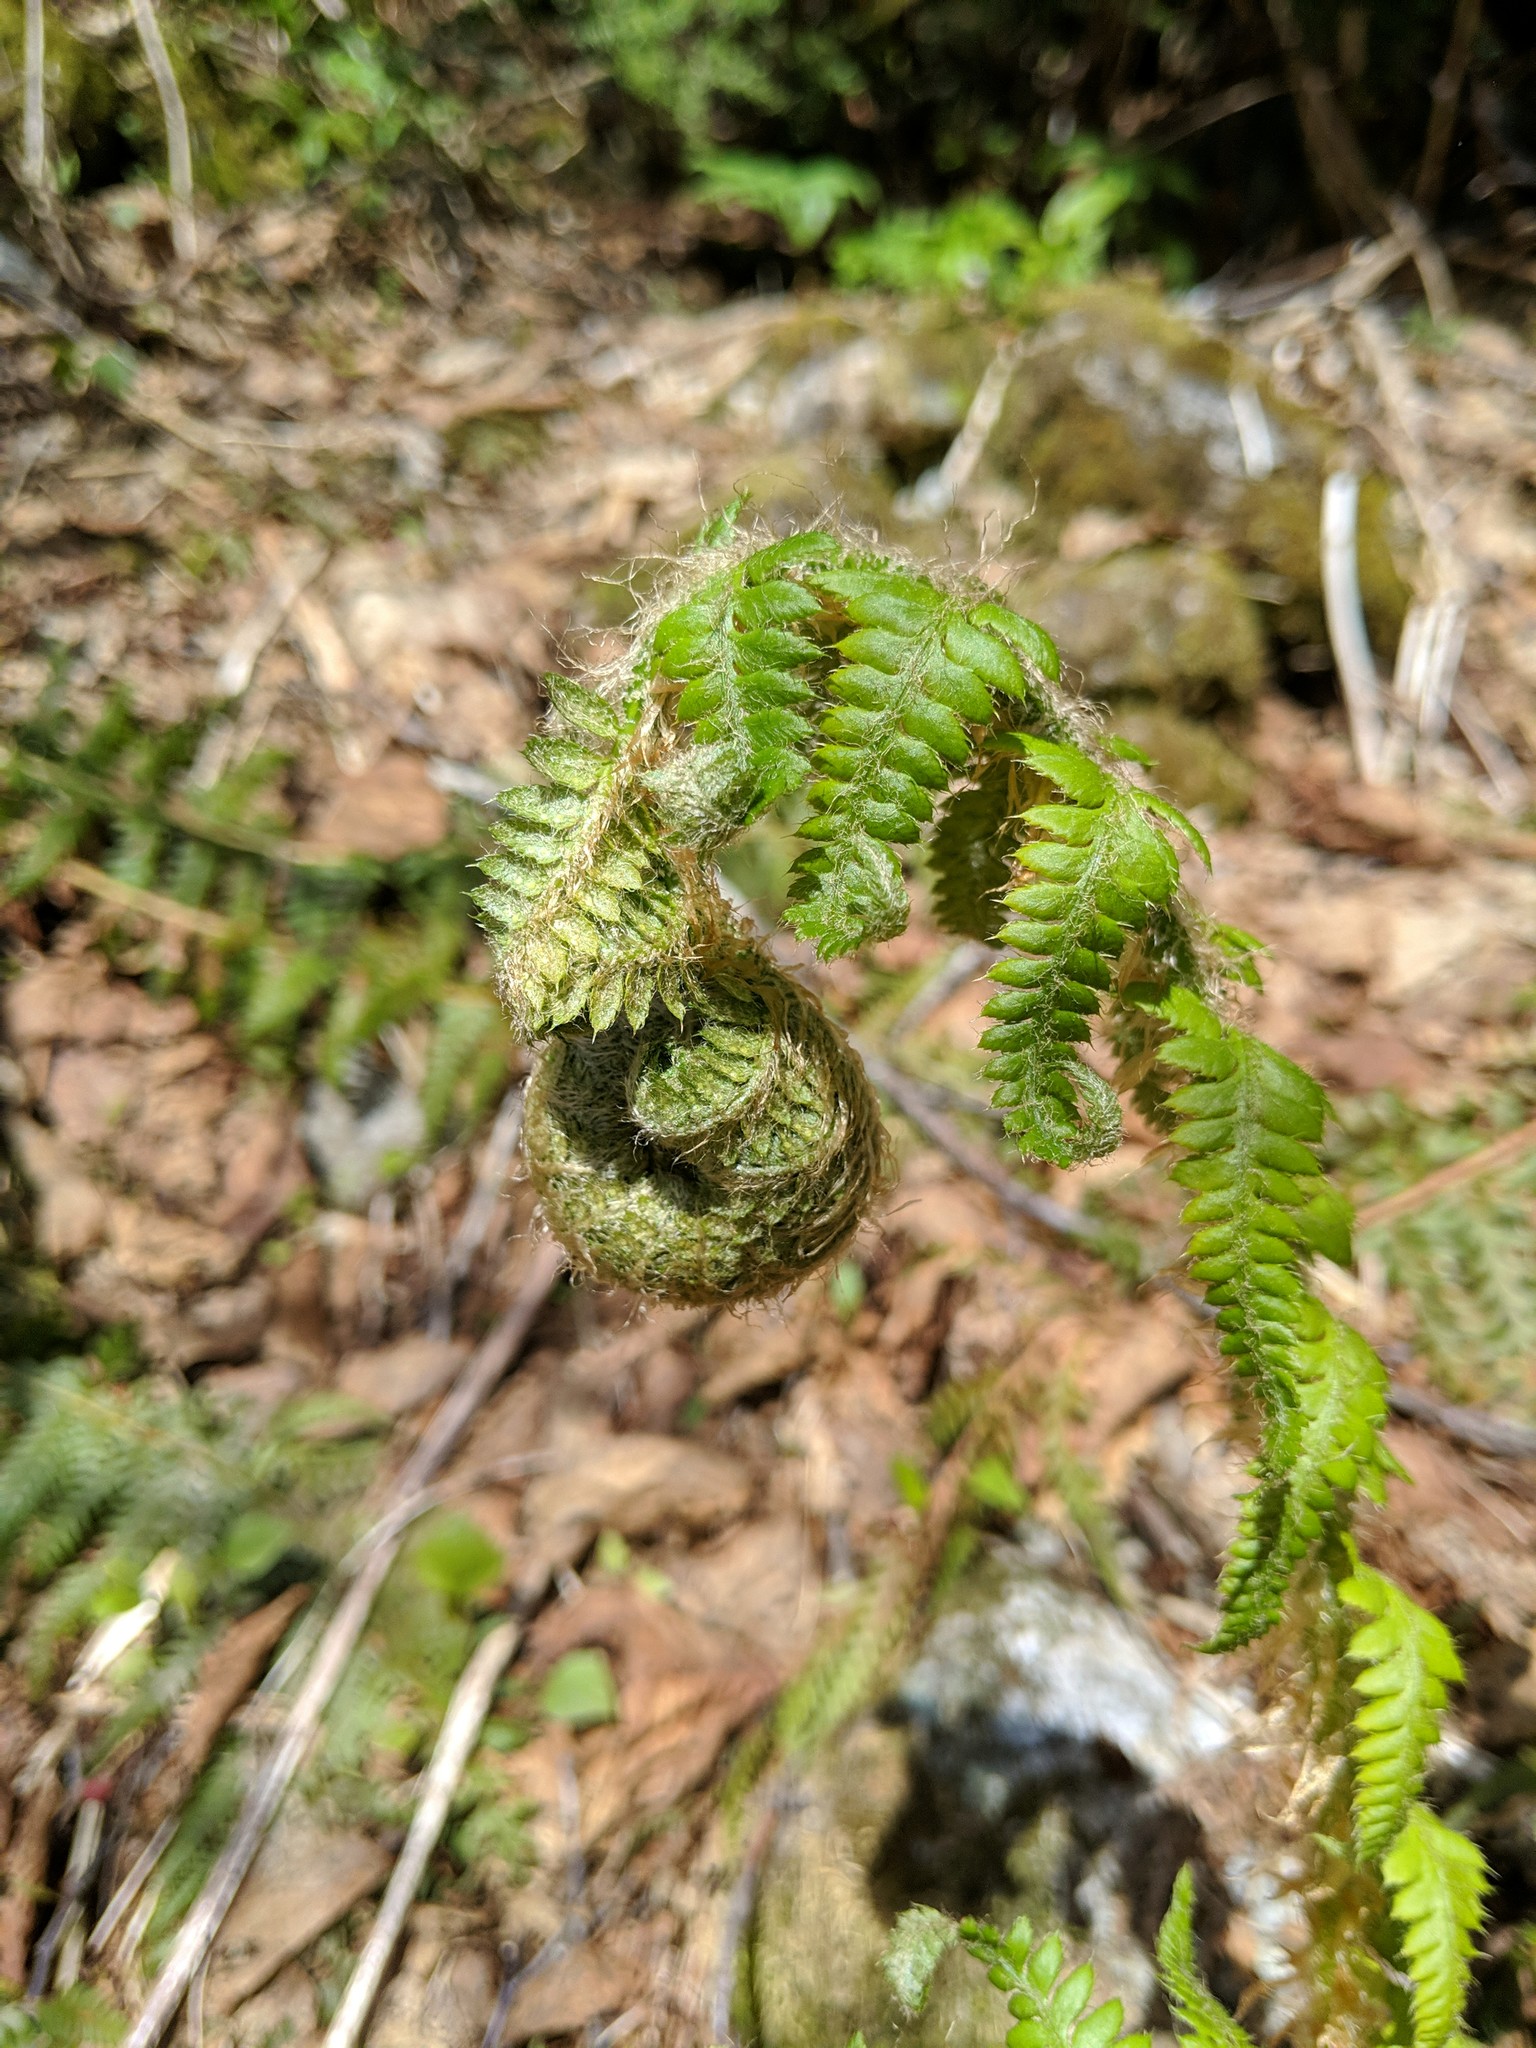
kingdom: Plantae
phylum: Tracheophyta
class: Polypodiopsida
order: Polypodiales
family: Dryopteridaceae
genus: Polystichum
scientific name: Polystichum andersonii
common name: Anderson's holly fern
